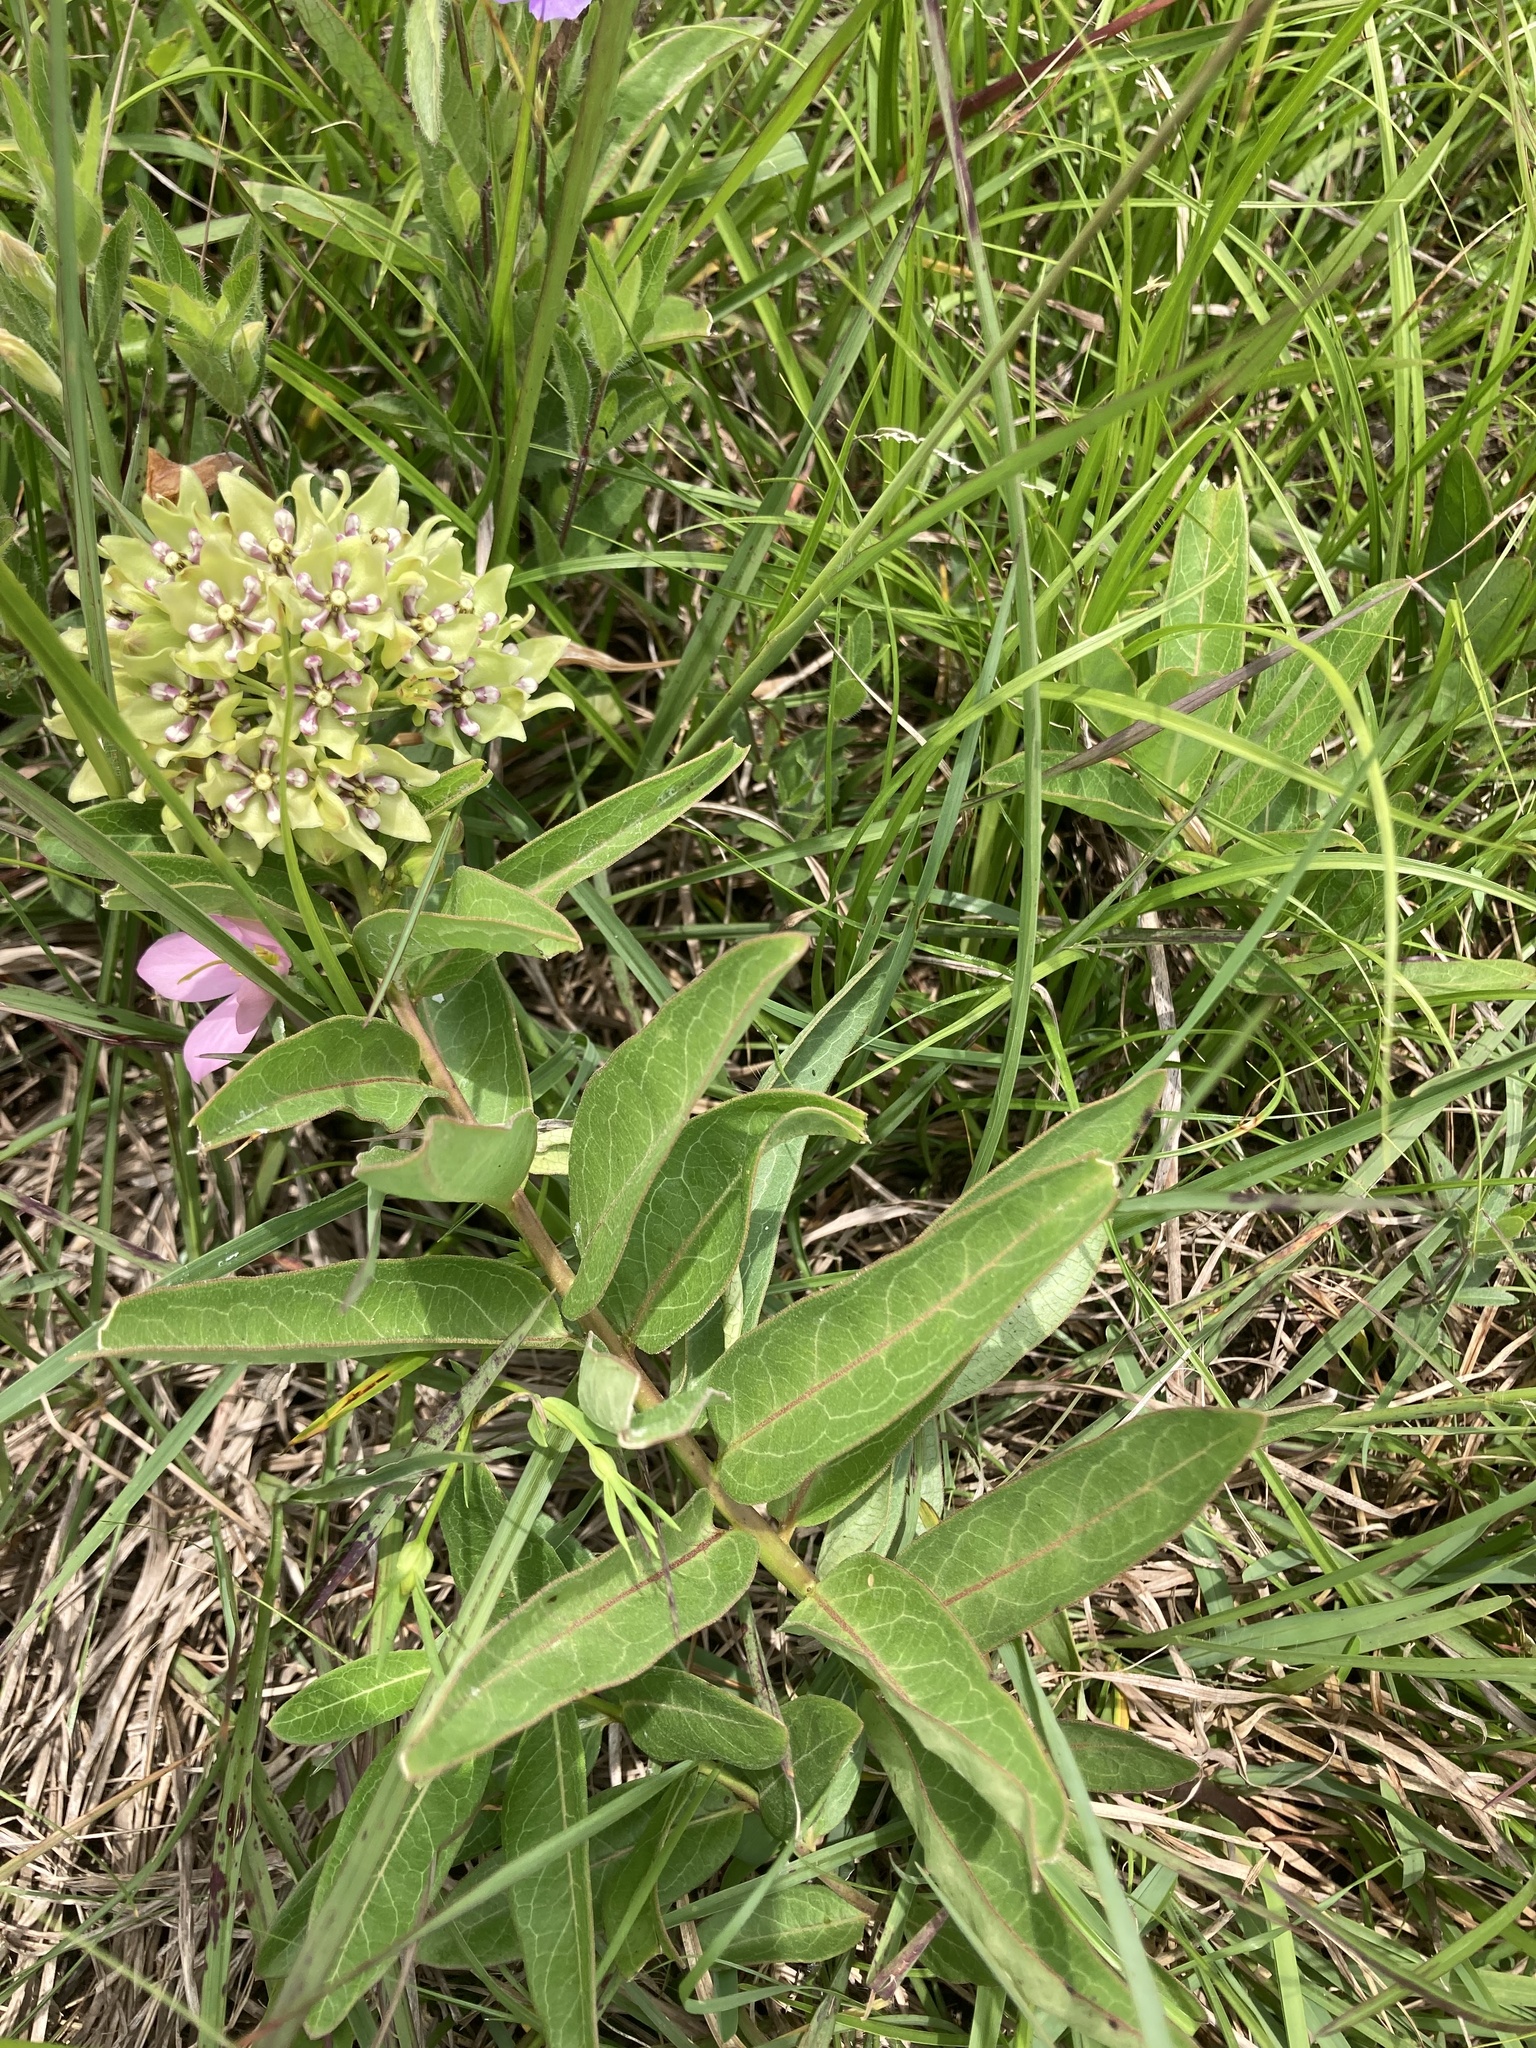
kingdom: Plantae
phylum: Tracheophyta
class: Magnoliopsida
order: Gentianales
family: Apocynaceae
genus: Asclepias
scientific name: Asclepias viridis
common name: Antelope-horns
